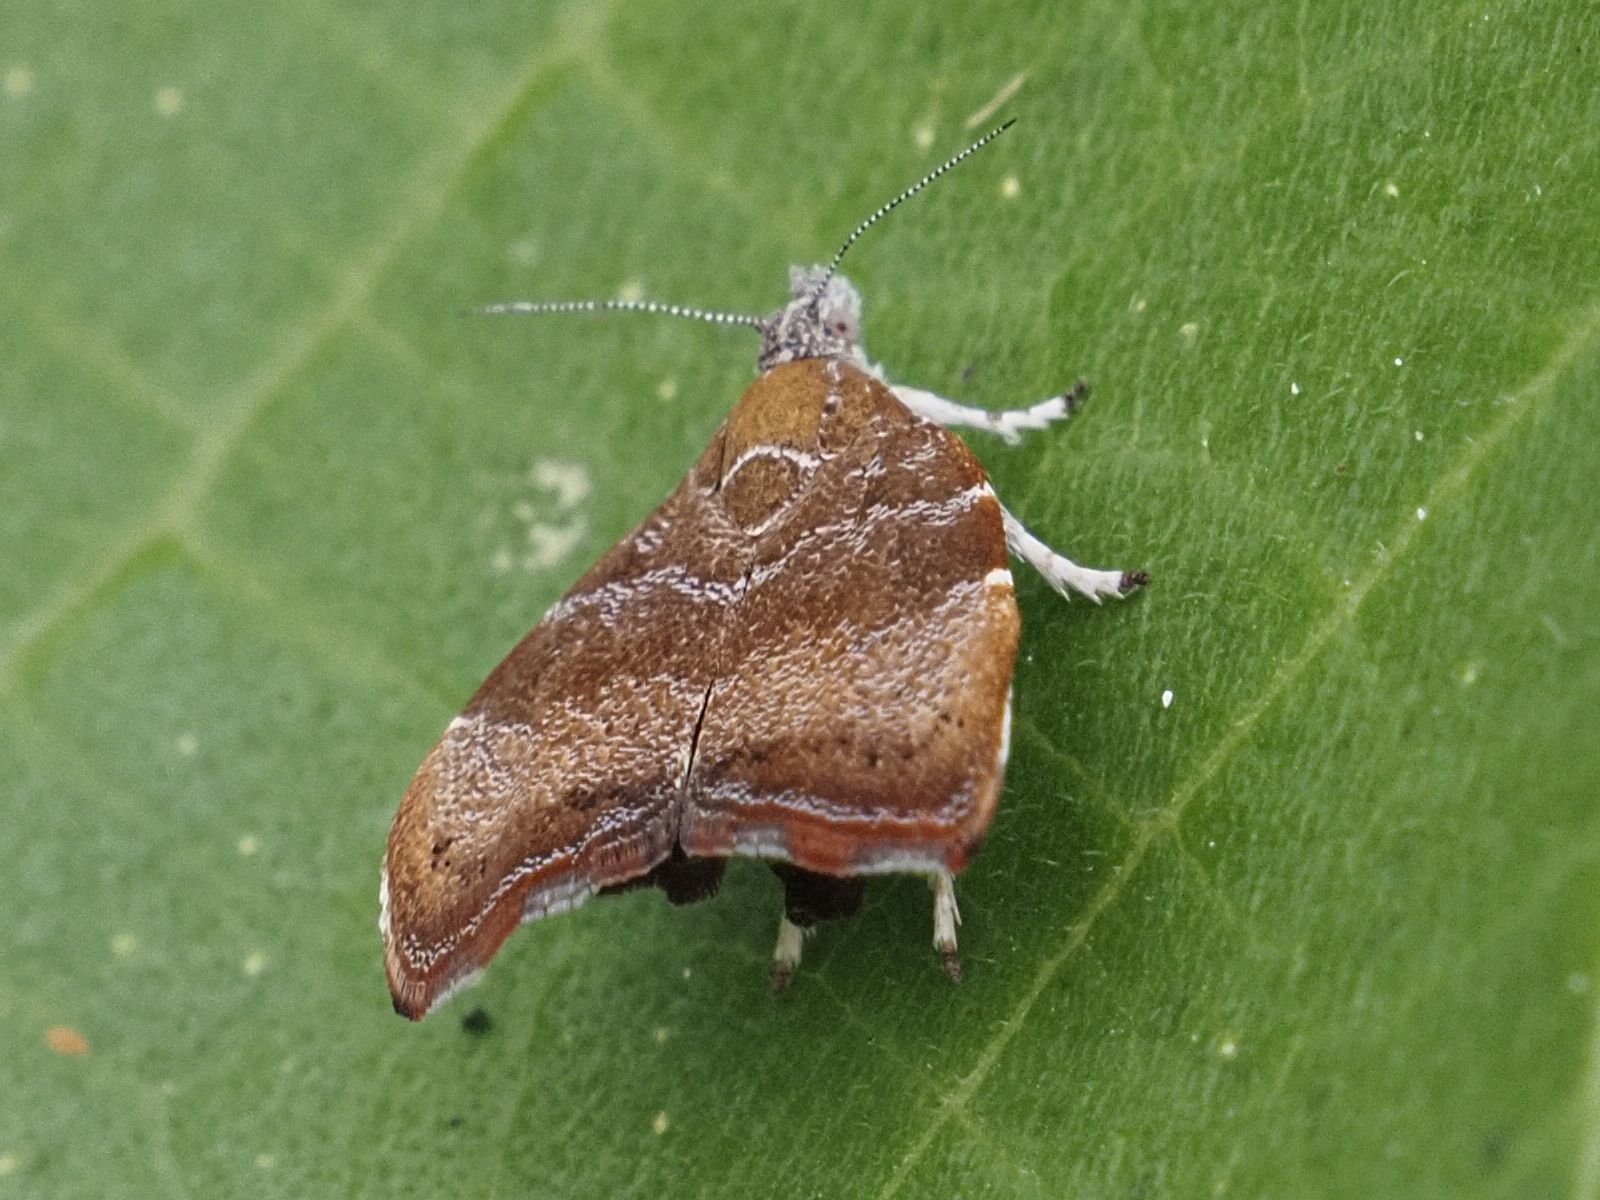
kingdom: Animalia
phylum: Arthropoda
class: Insecta
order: Lepidoptera
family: Choreutidae
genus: Anthophila
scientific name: Anthophila nemorana
